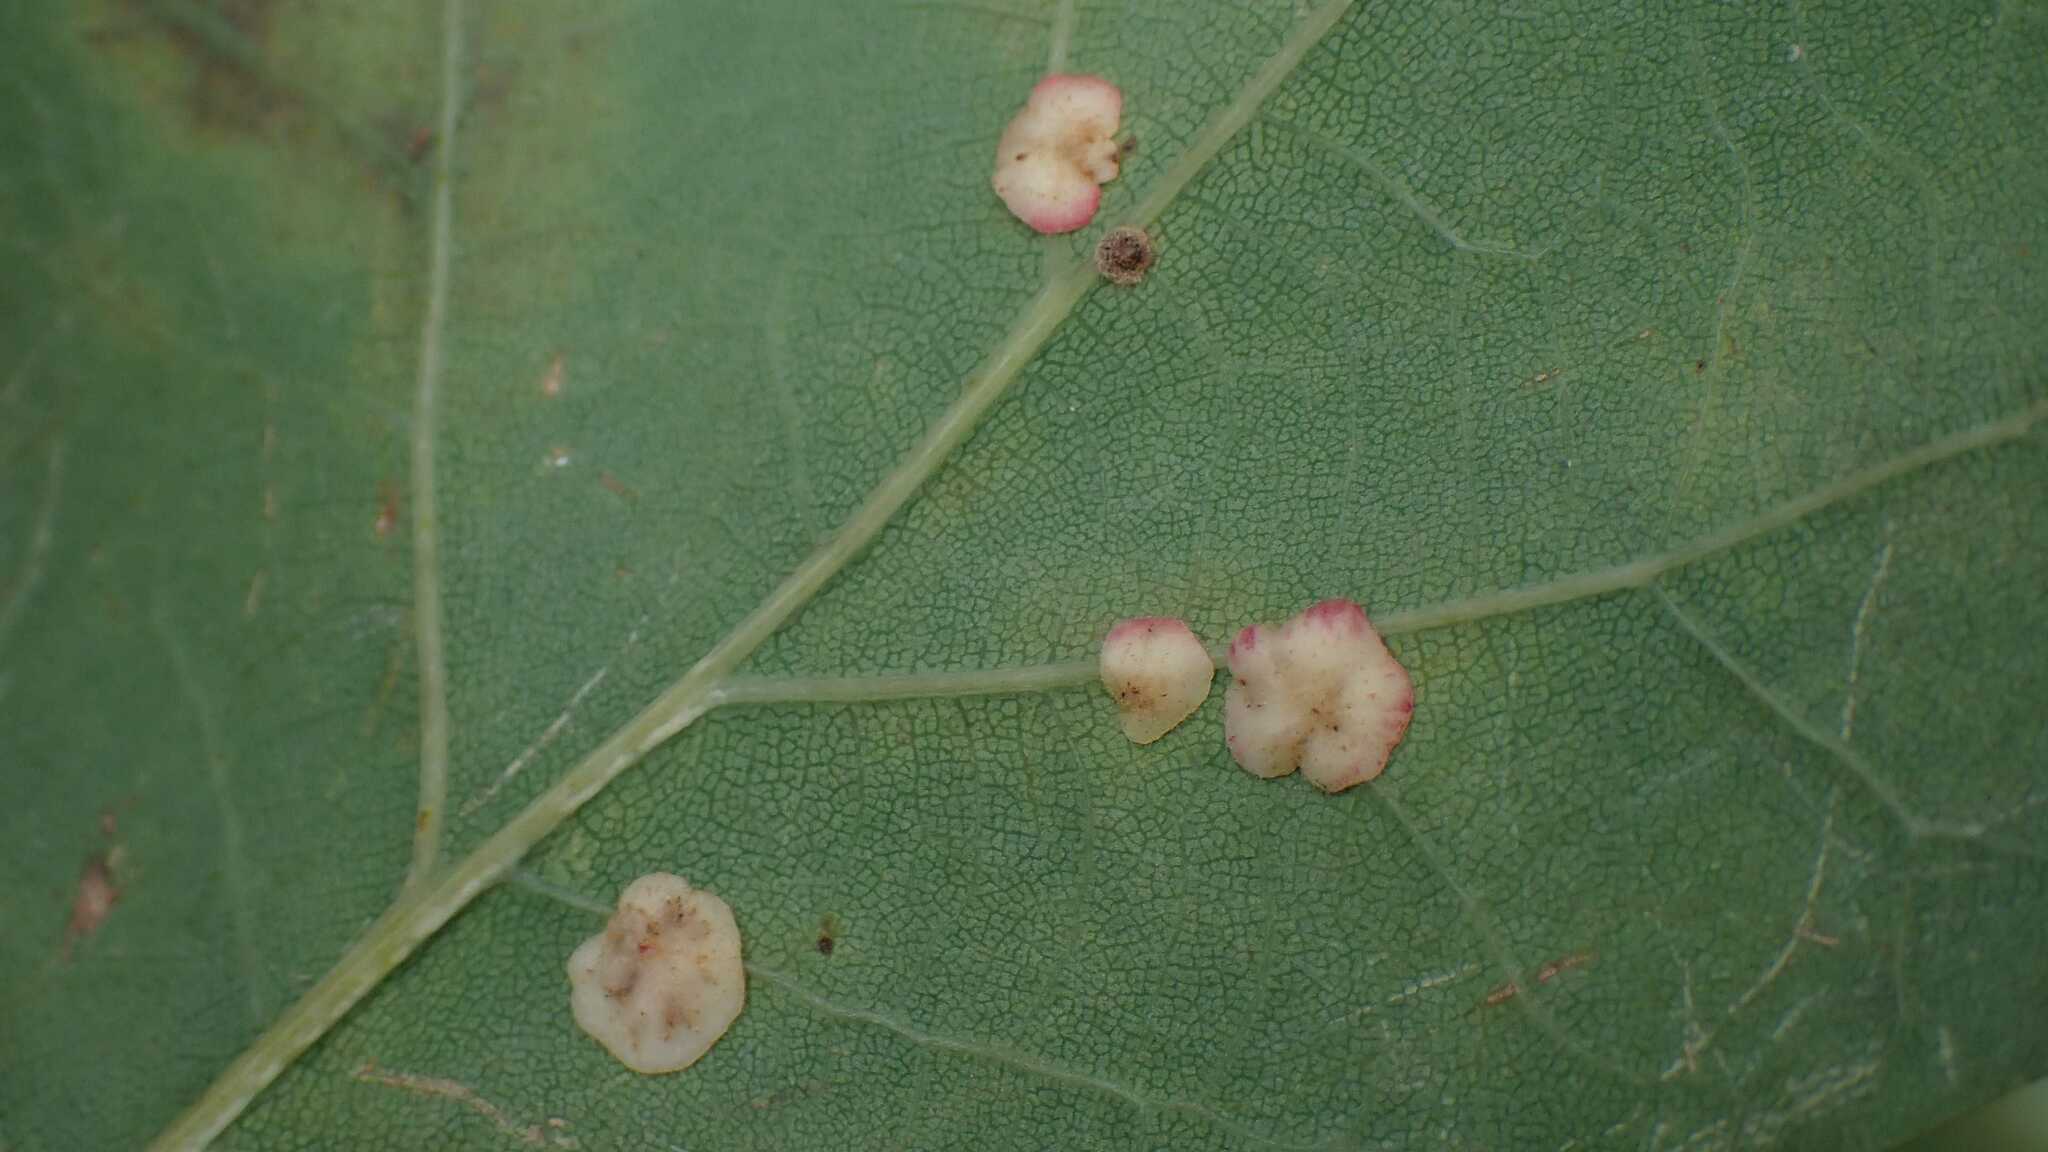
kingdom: Animalia
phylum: Arthropoda
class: Insecta
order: Hymenoptera
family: Cynipidae
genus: Neuroterus
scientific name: Neuroterus albipes
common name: Smooth spangle gall
